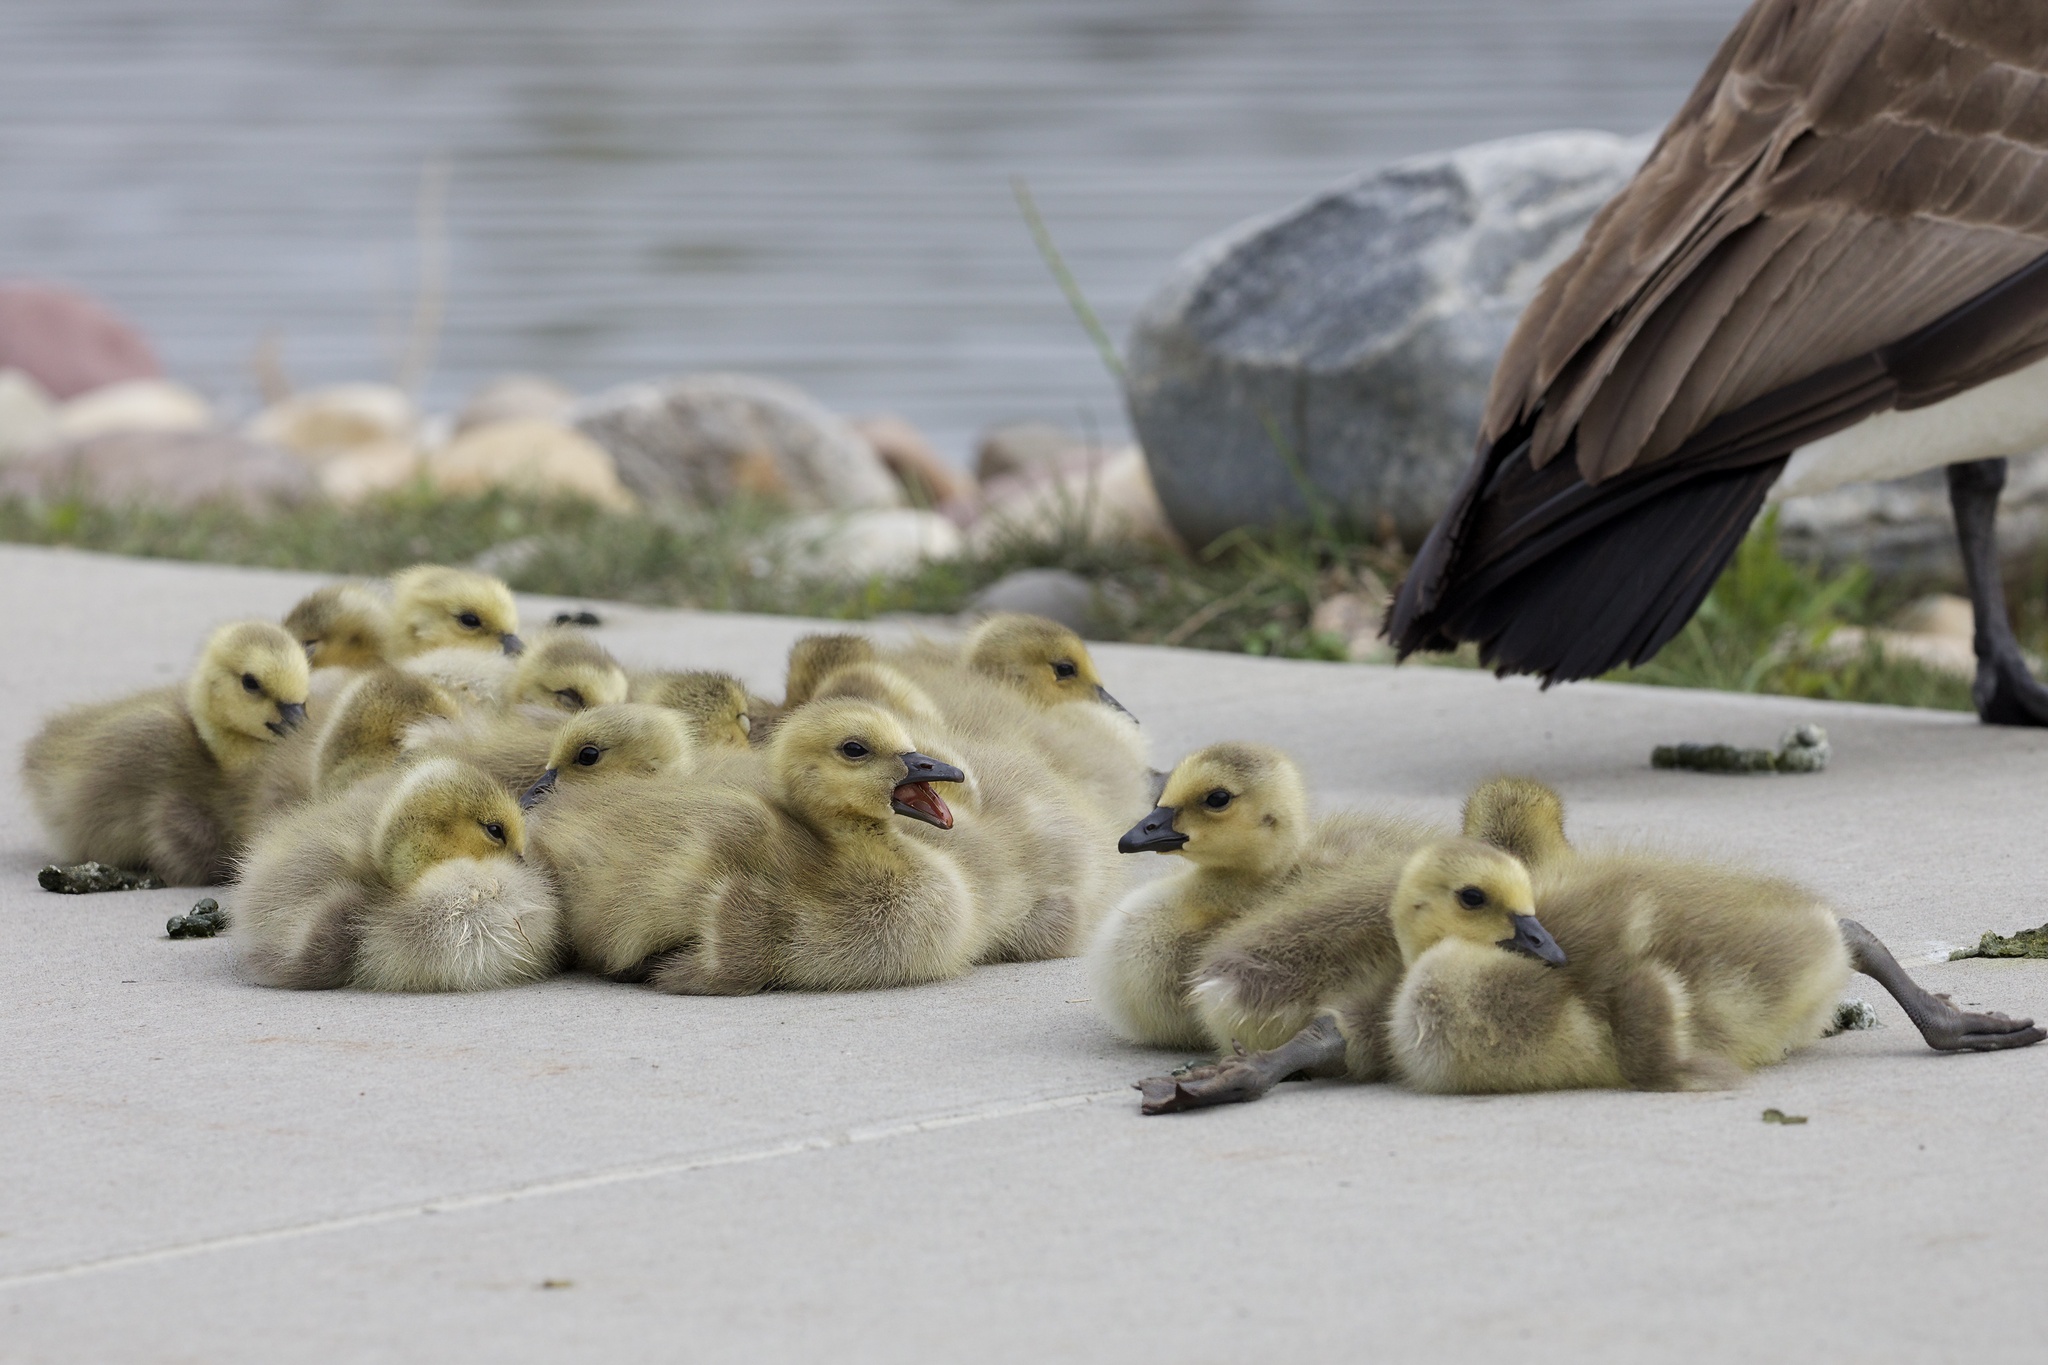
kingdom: Animalia
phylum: Chordata
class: Aves
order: Anseriformes
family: Anatidae
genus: Branta
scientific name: Branta canadensis
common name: Canada goose
